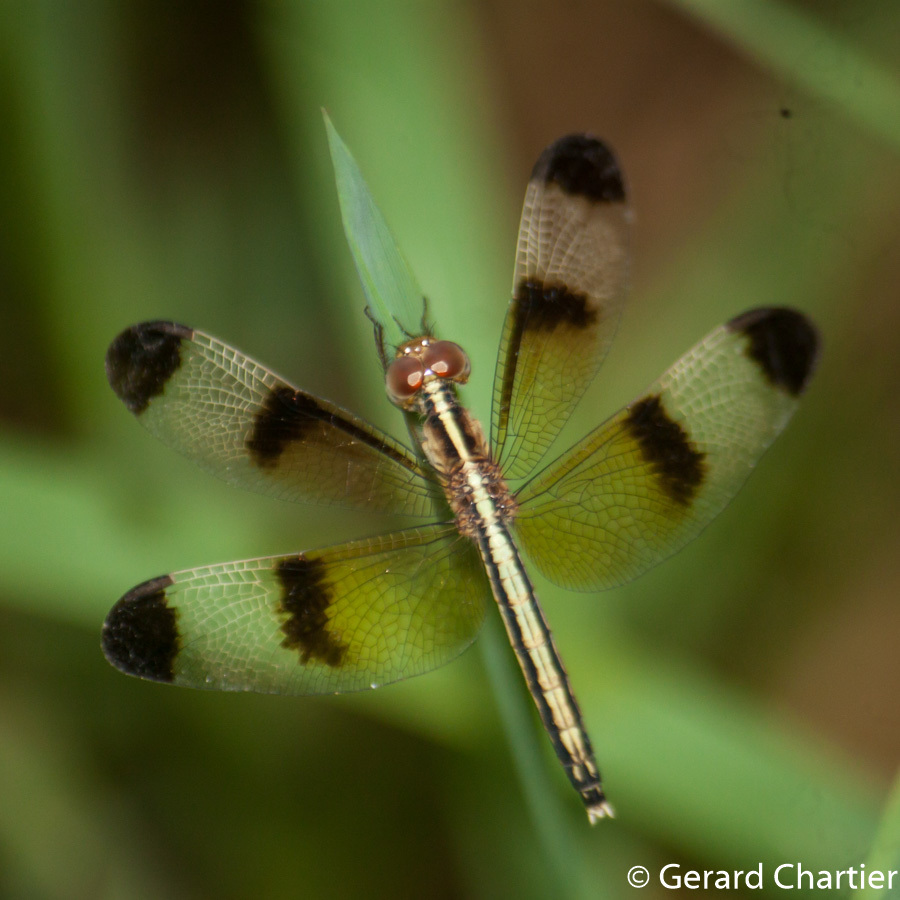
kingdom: Animalia
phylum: Arthropoda
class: Insecta
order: Odonata
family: Libellulidae
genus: Neurothemis
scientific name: Neurothemis tullia
